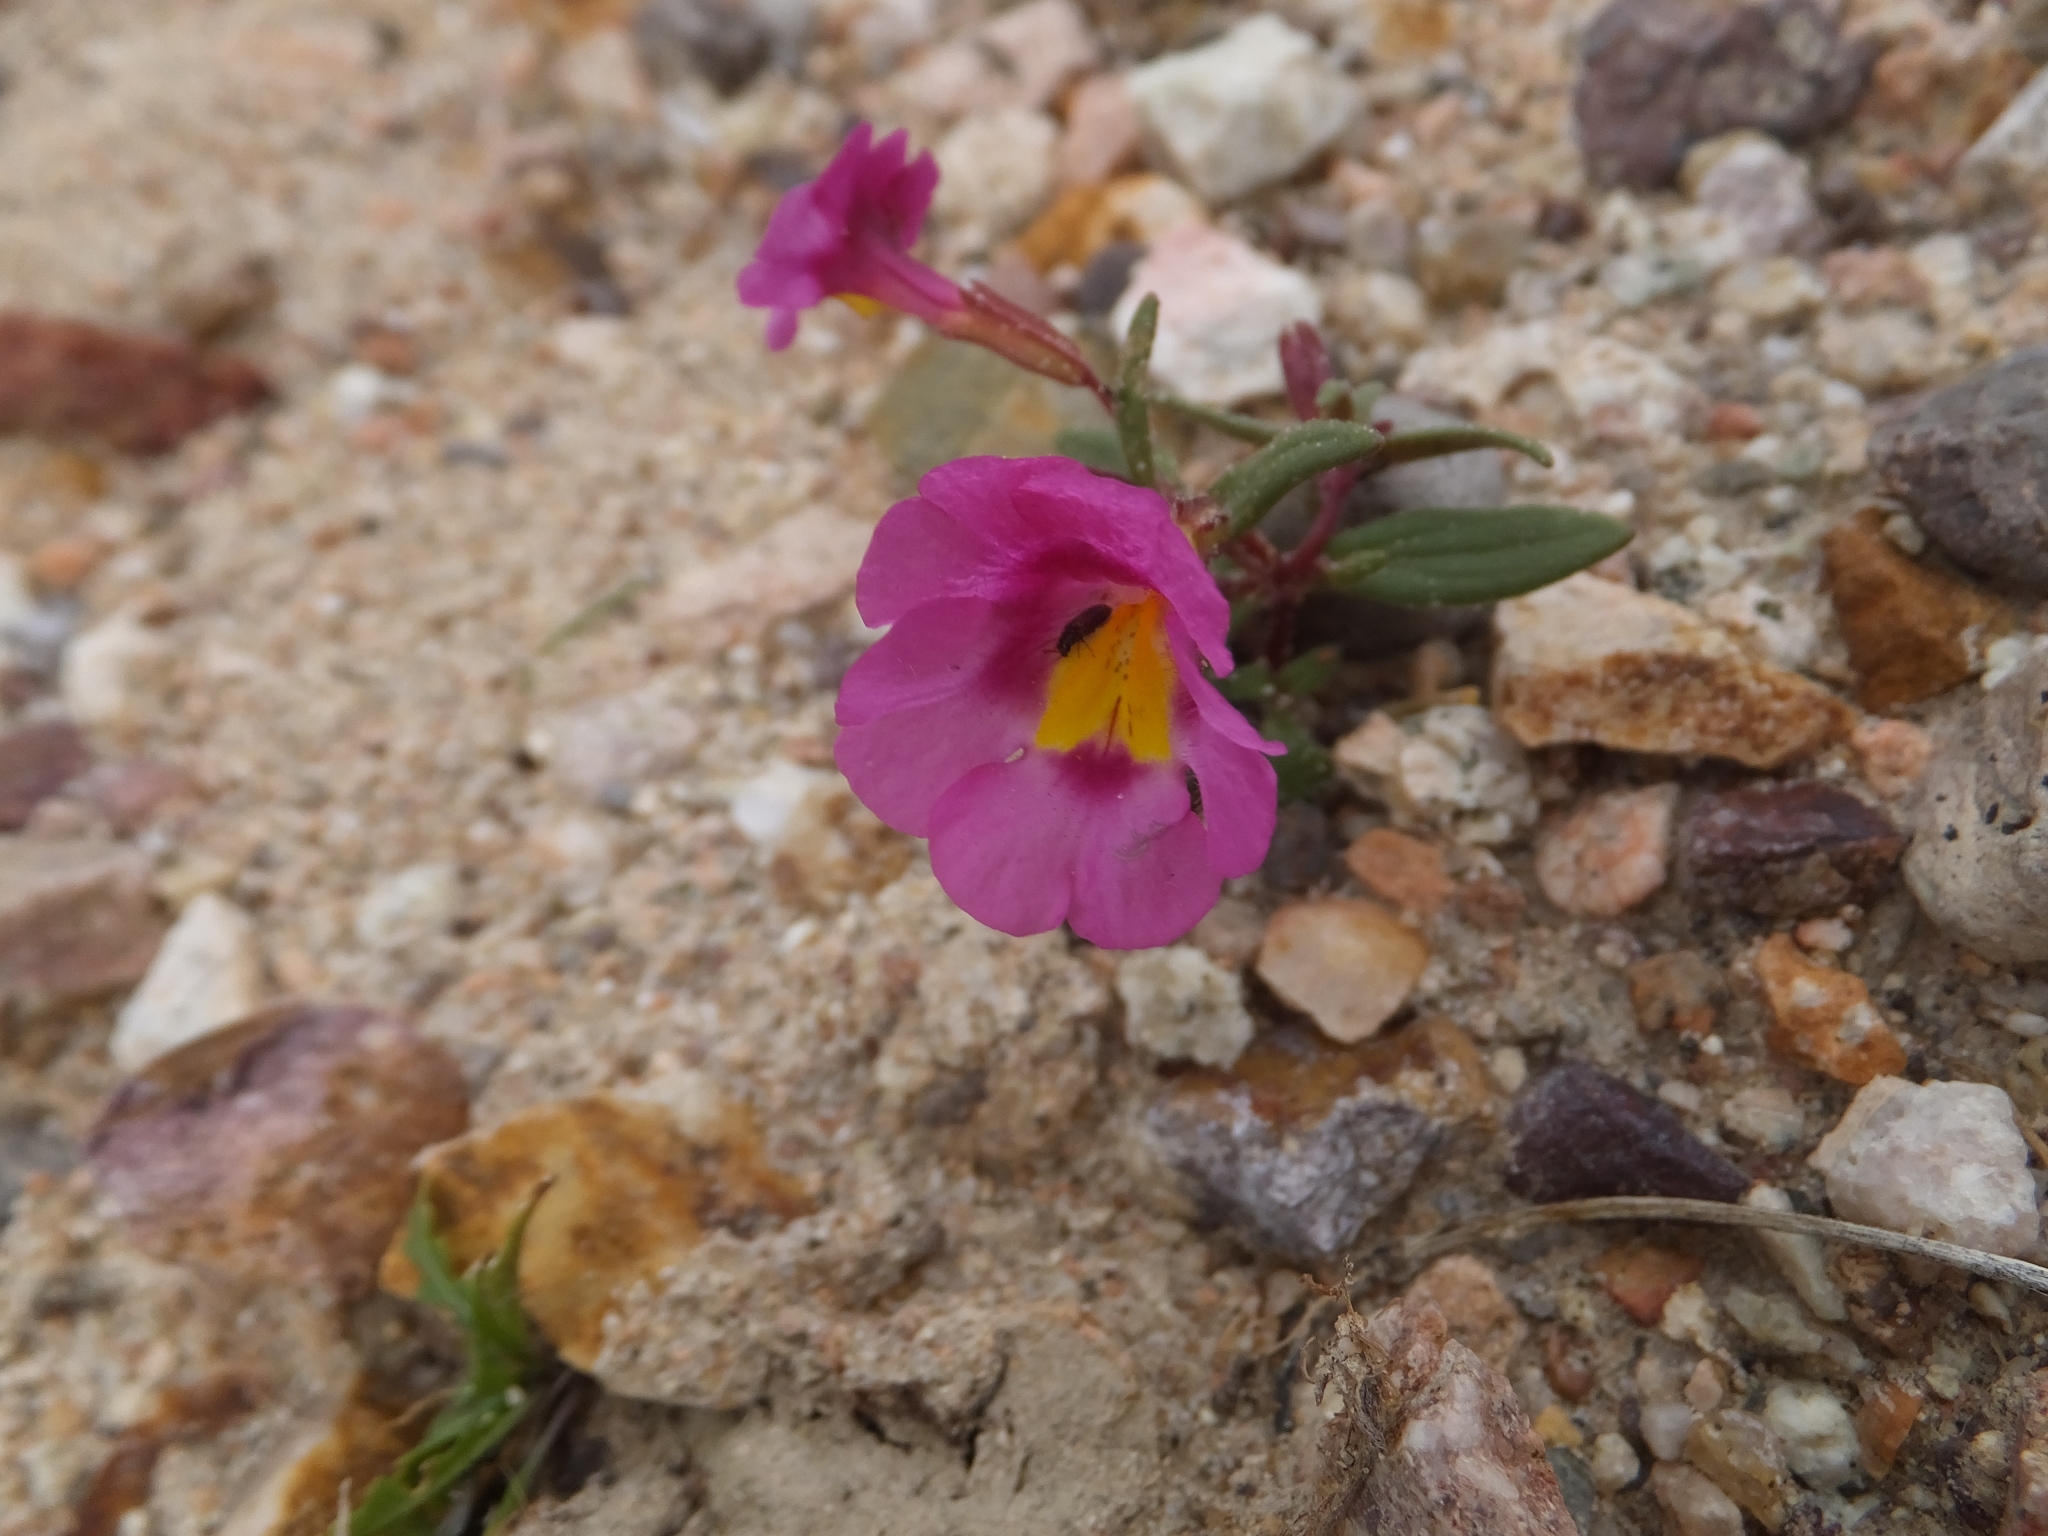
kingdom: Plantae
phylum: Tracheophyta
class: Magnoliopsida
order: Lamiales
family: Phrymaceae
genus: Erythranthe
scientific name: Erythranthe rhodopetra
